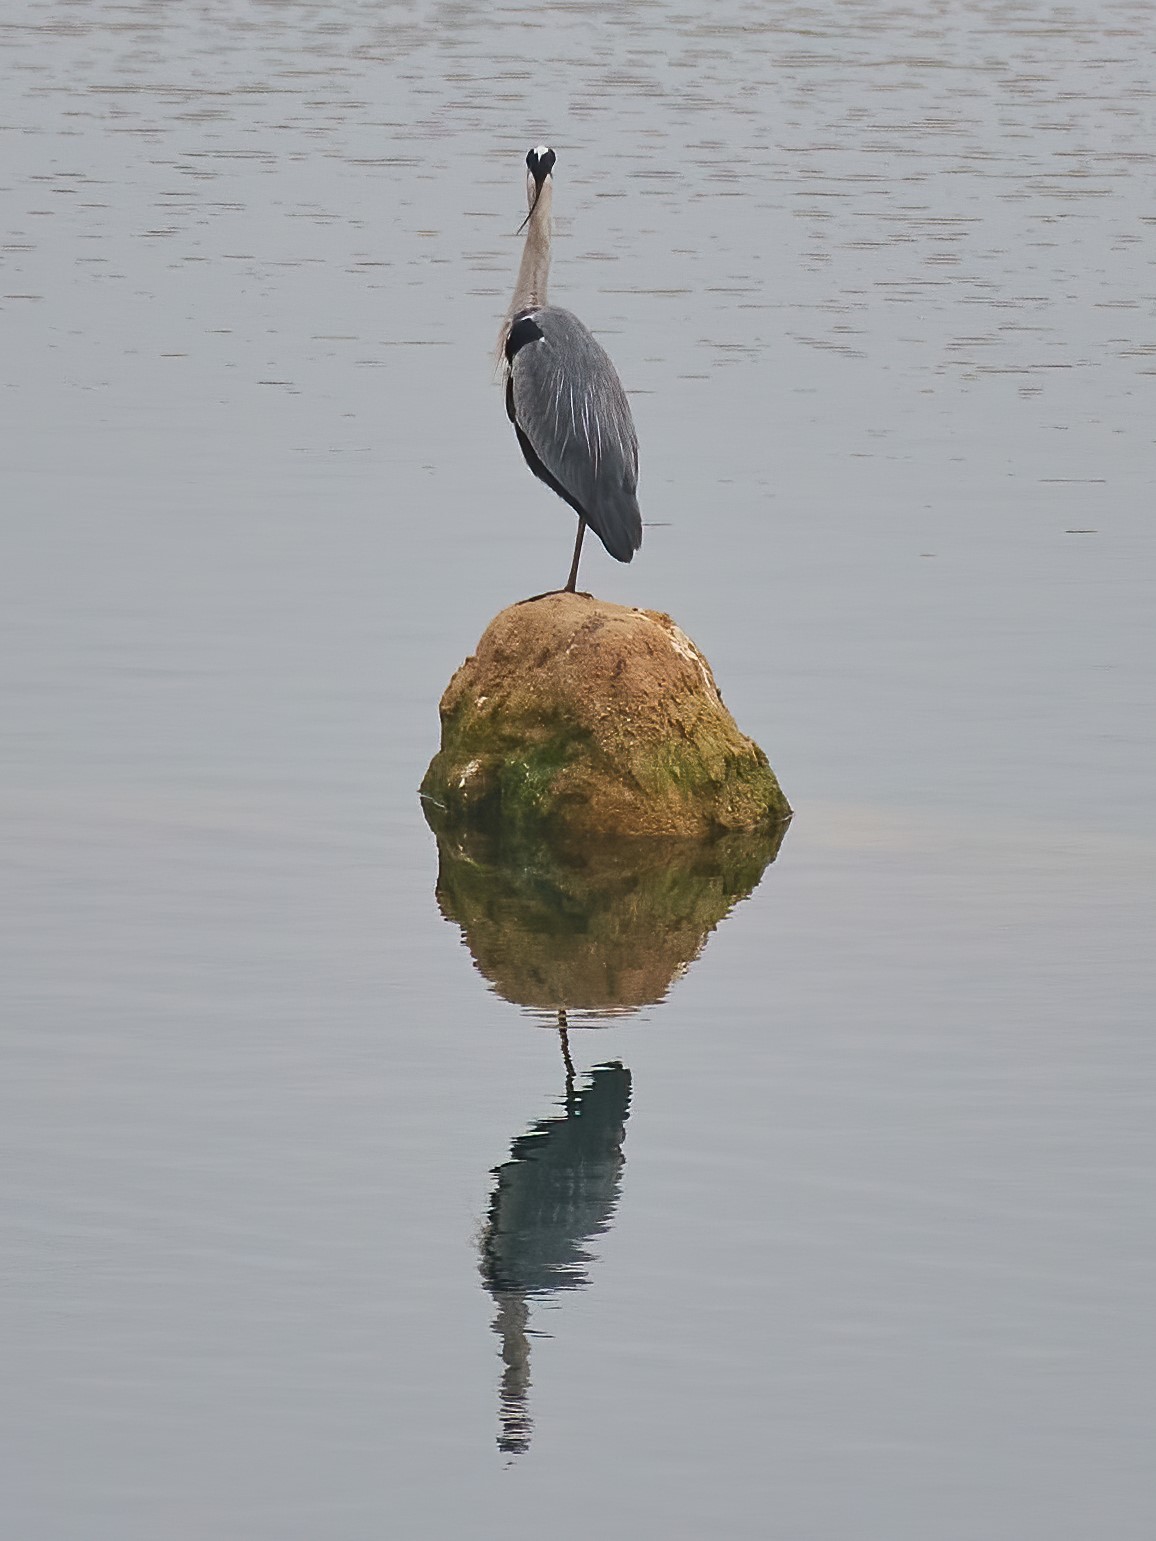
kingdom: Animalia
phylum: Chordata
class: Aves
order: Pelecaniformes
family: Ardeidae
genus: Ardea
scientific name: Ardea cinerea
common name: Grey heron
